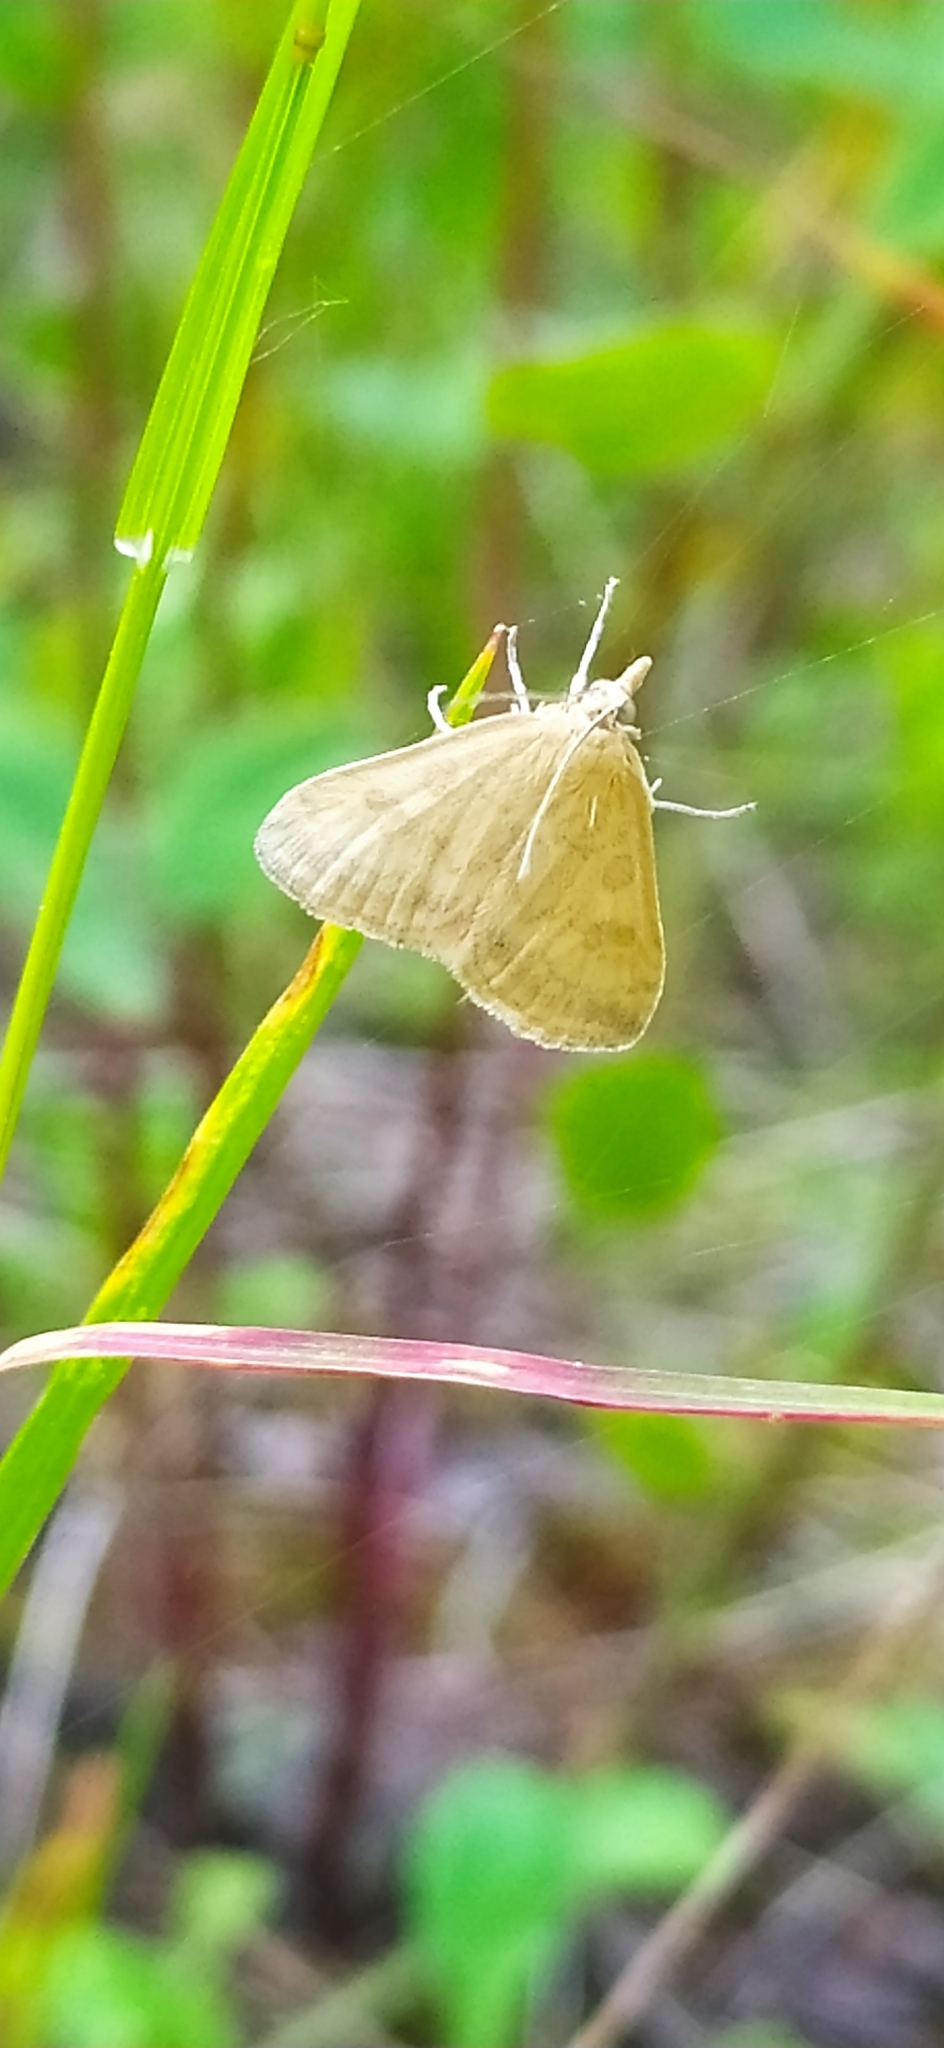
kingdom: Animalia
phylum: Arthropoda
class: Insecta
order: Lepidoptera
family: Crambidae
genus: Mimudea
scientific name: Mimudea elutalis
